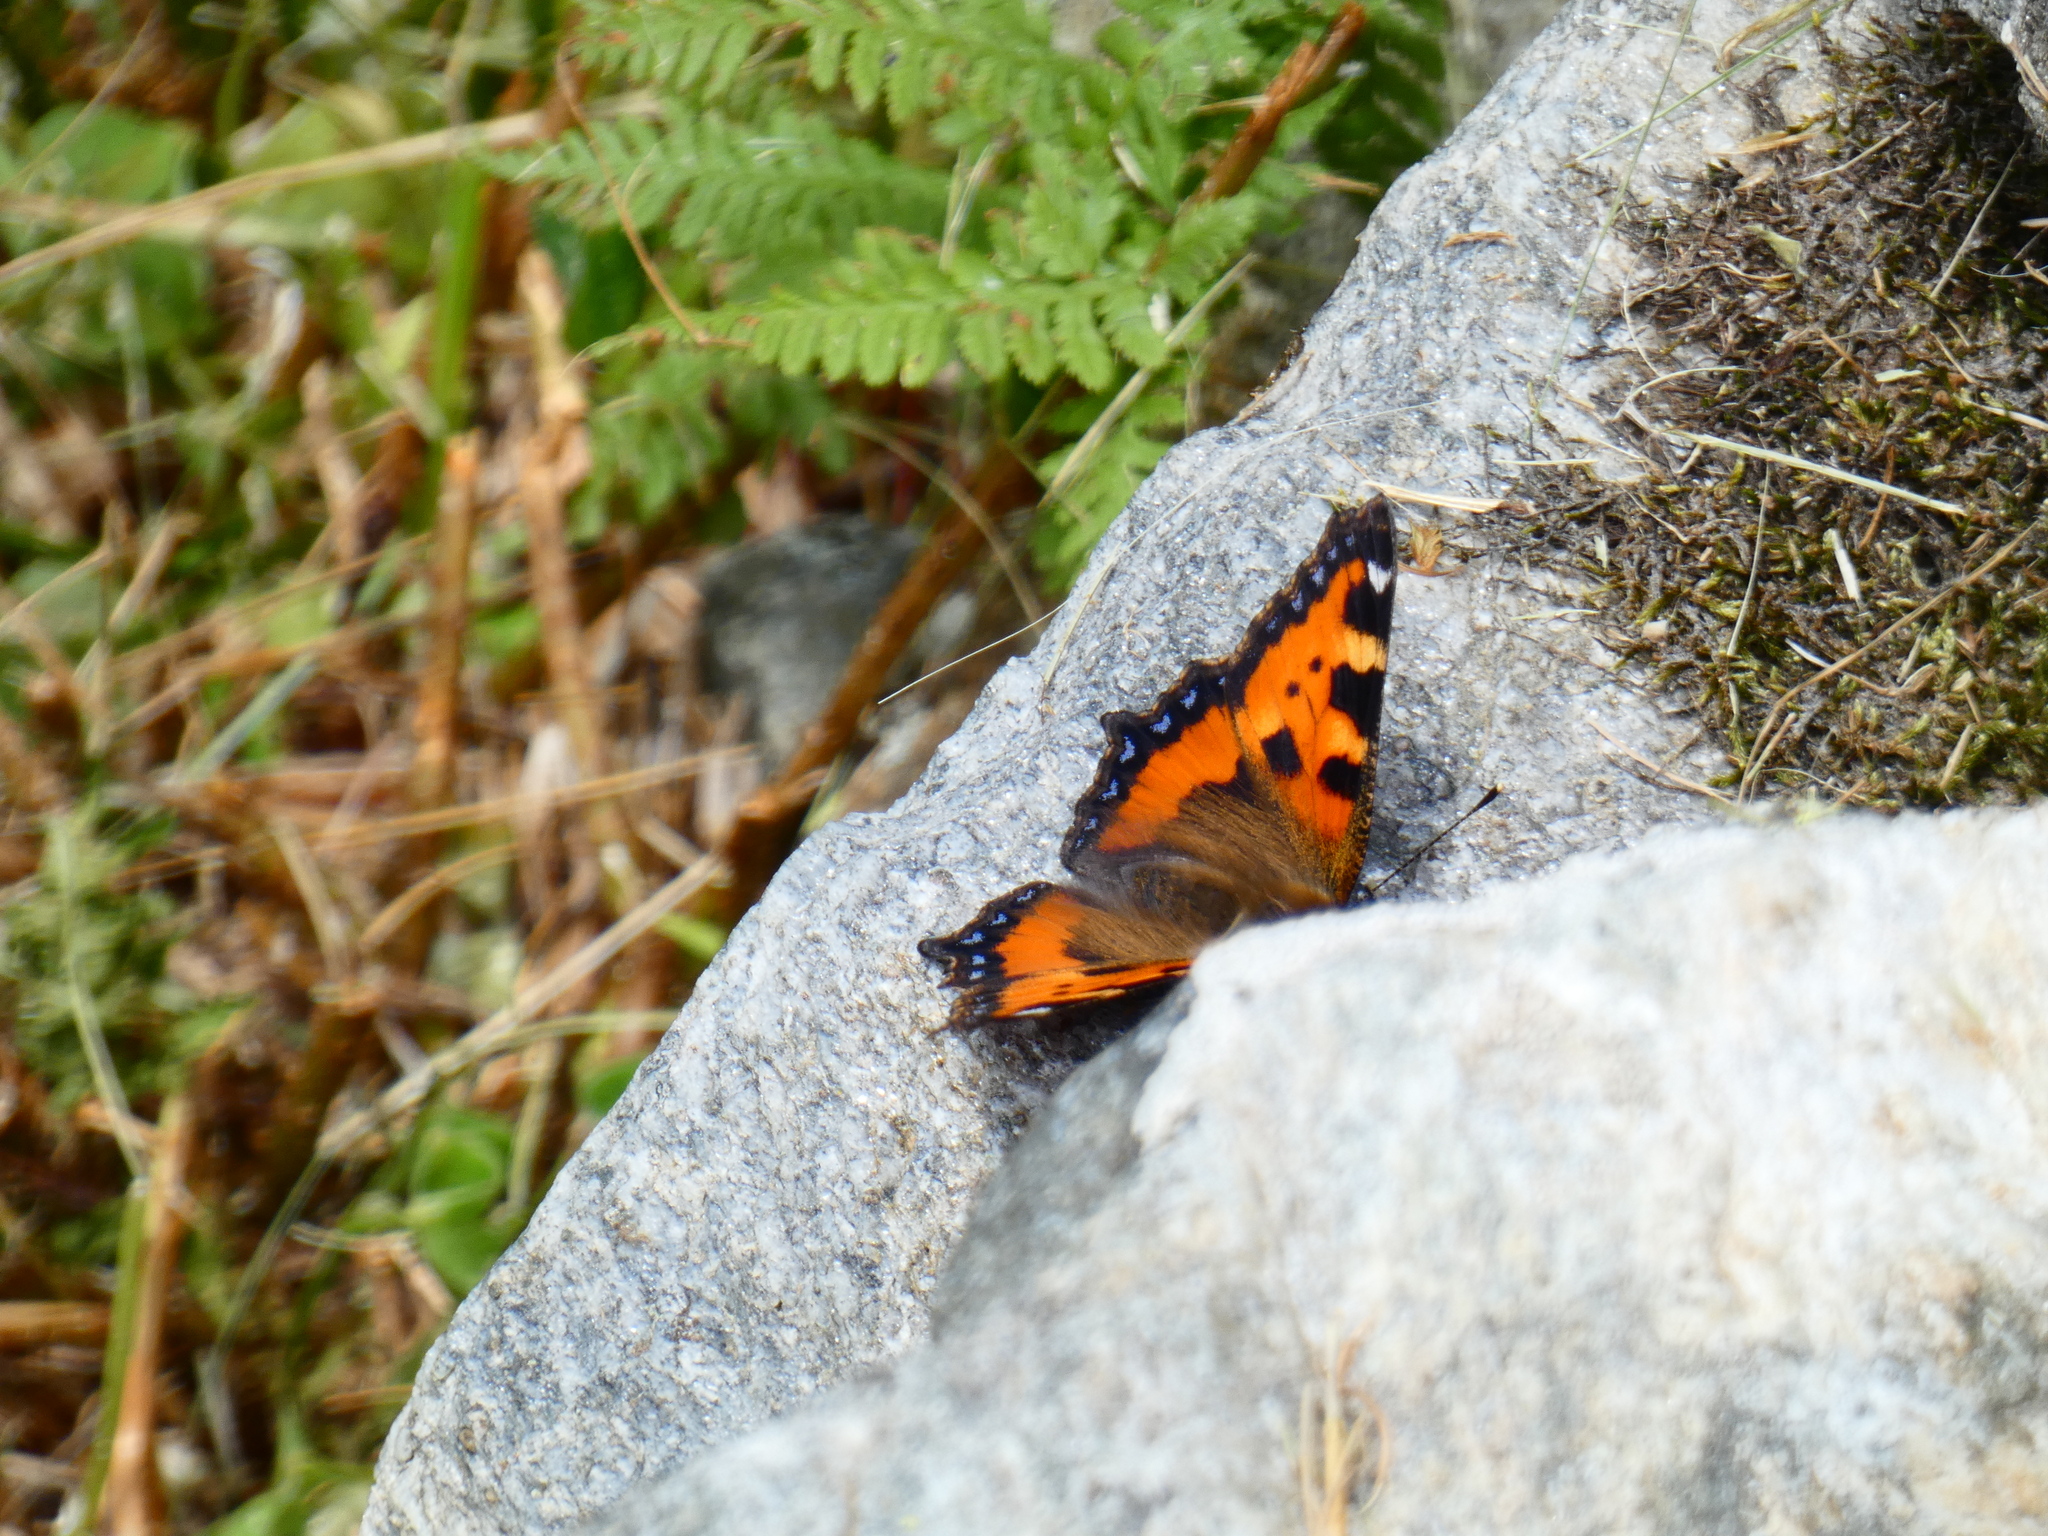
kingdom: Animalia
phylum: Arthropoda
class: Insecta
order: Lepidoptera
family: Nymphalidae
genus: Aglais
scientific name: Aglais urticae
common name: Small tortoiseshell
